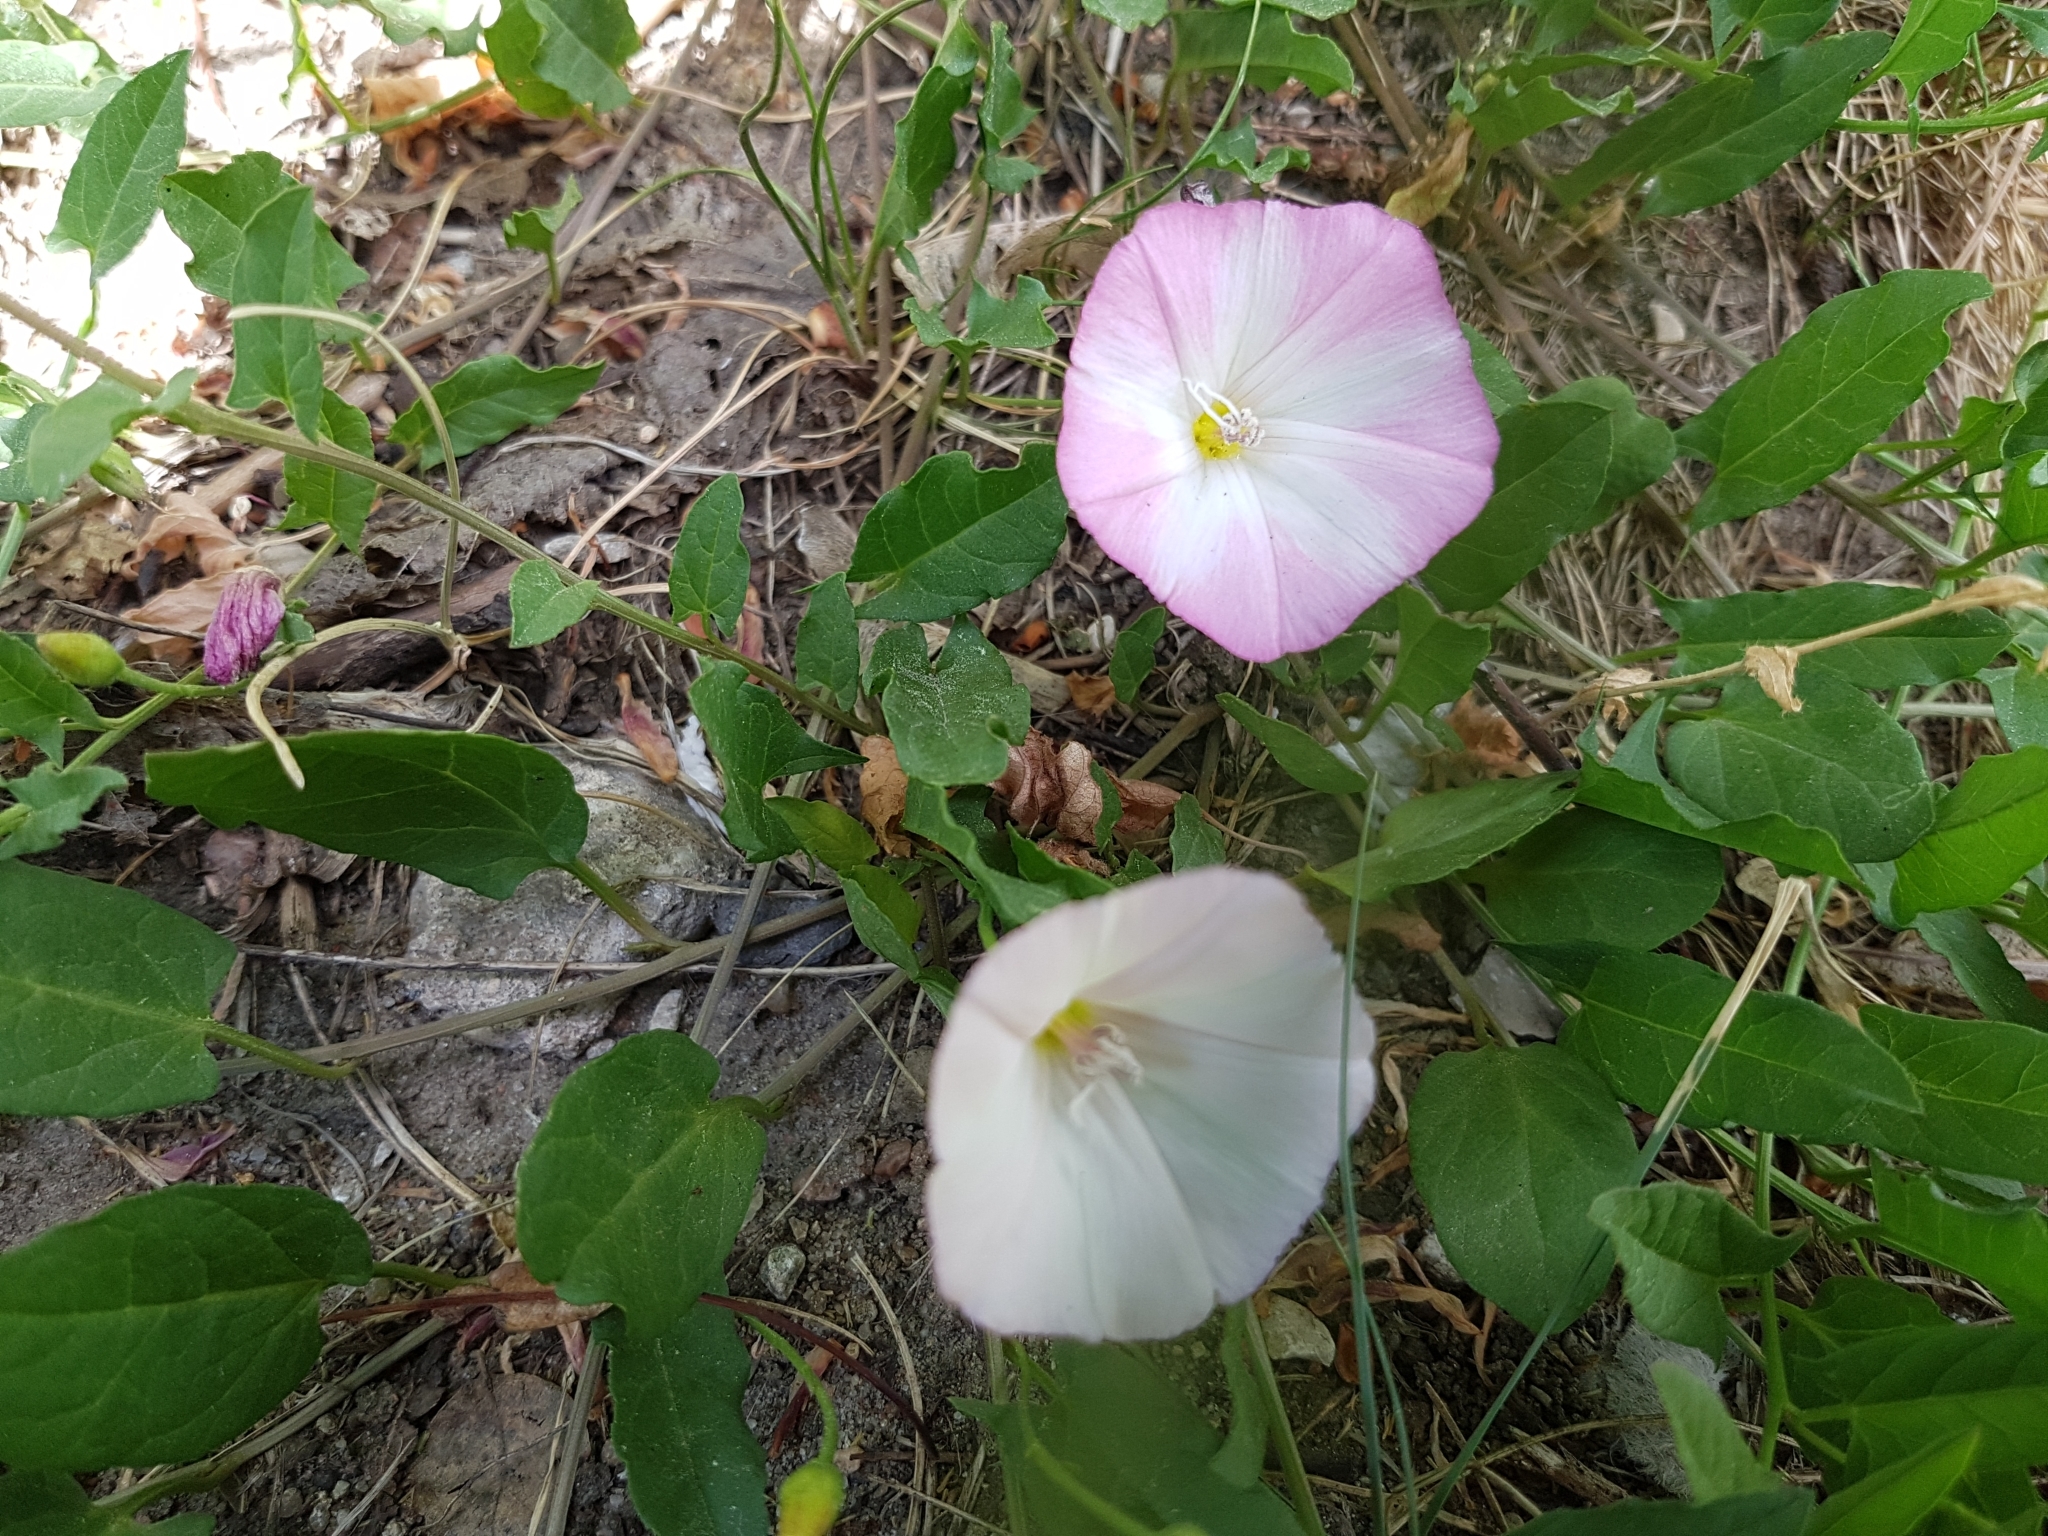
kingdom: Plantae
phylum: Tracheophyta
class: Magnoliopsida
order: Solanales
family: Convolvulaceae
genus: Convolvulus
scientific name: Convolvulus arvensis
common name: Field bindweed
